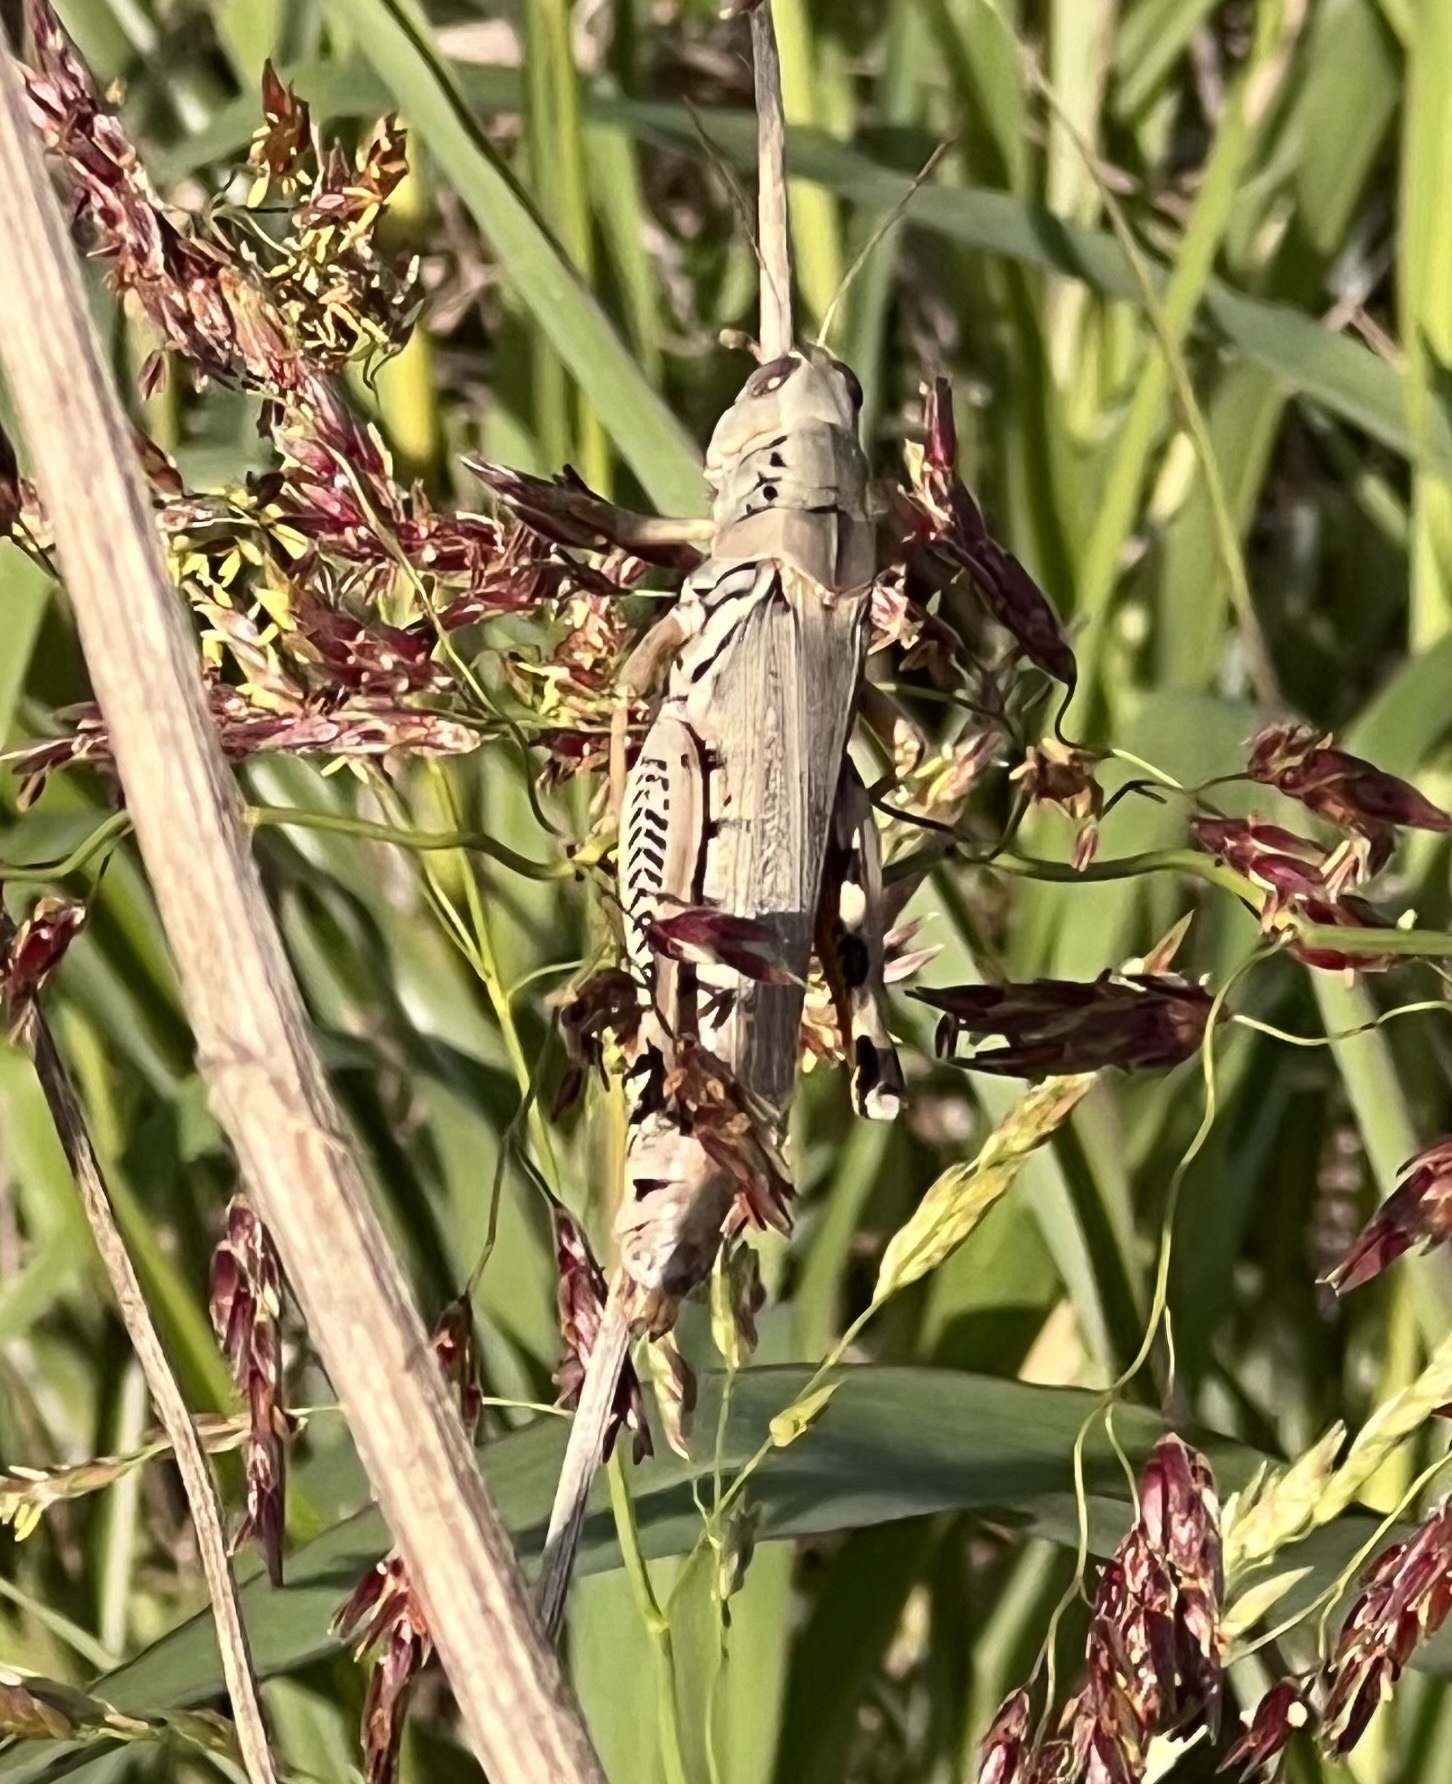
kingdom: Animalia
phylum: Arthropoda
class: Insecta
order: Orthoptera
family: Acrididae
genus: Melanoplus
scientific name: Melanoplus differentialis
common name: Differential grasshopper
